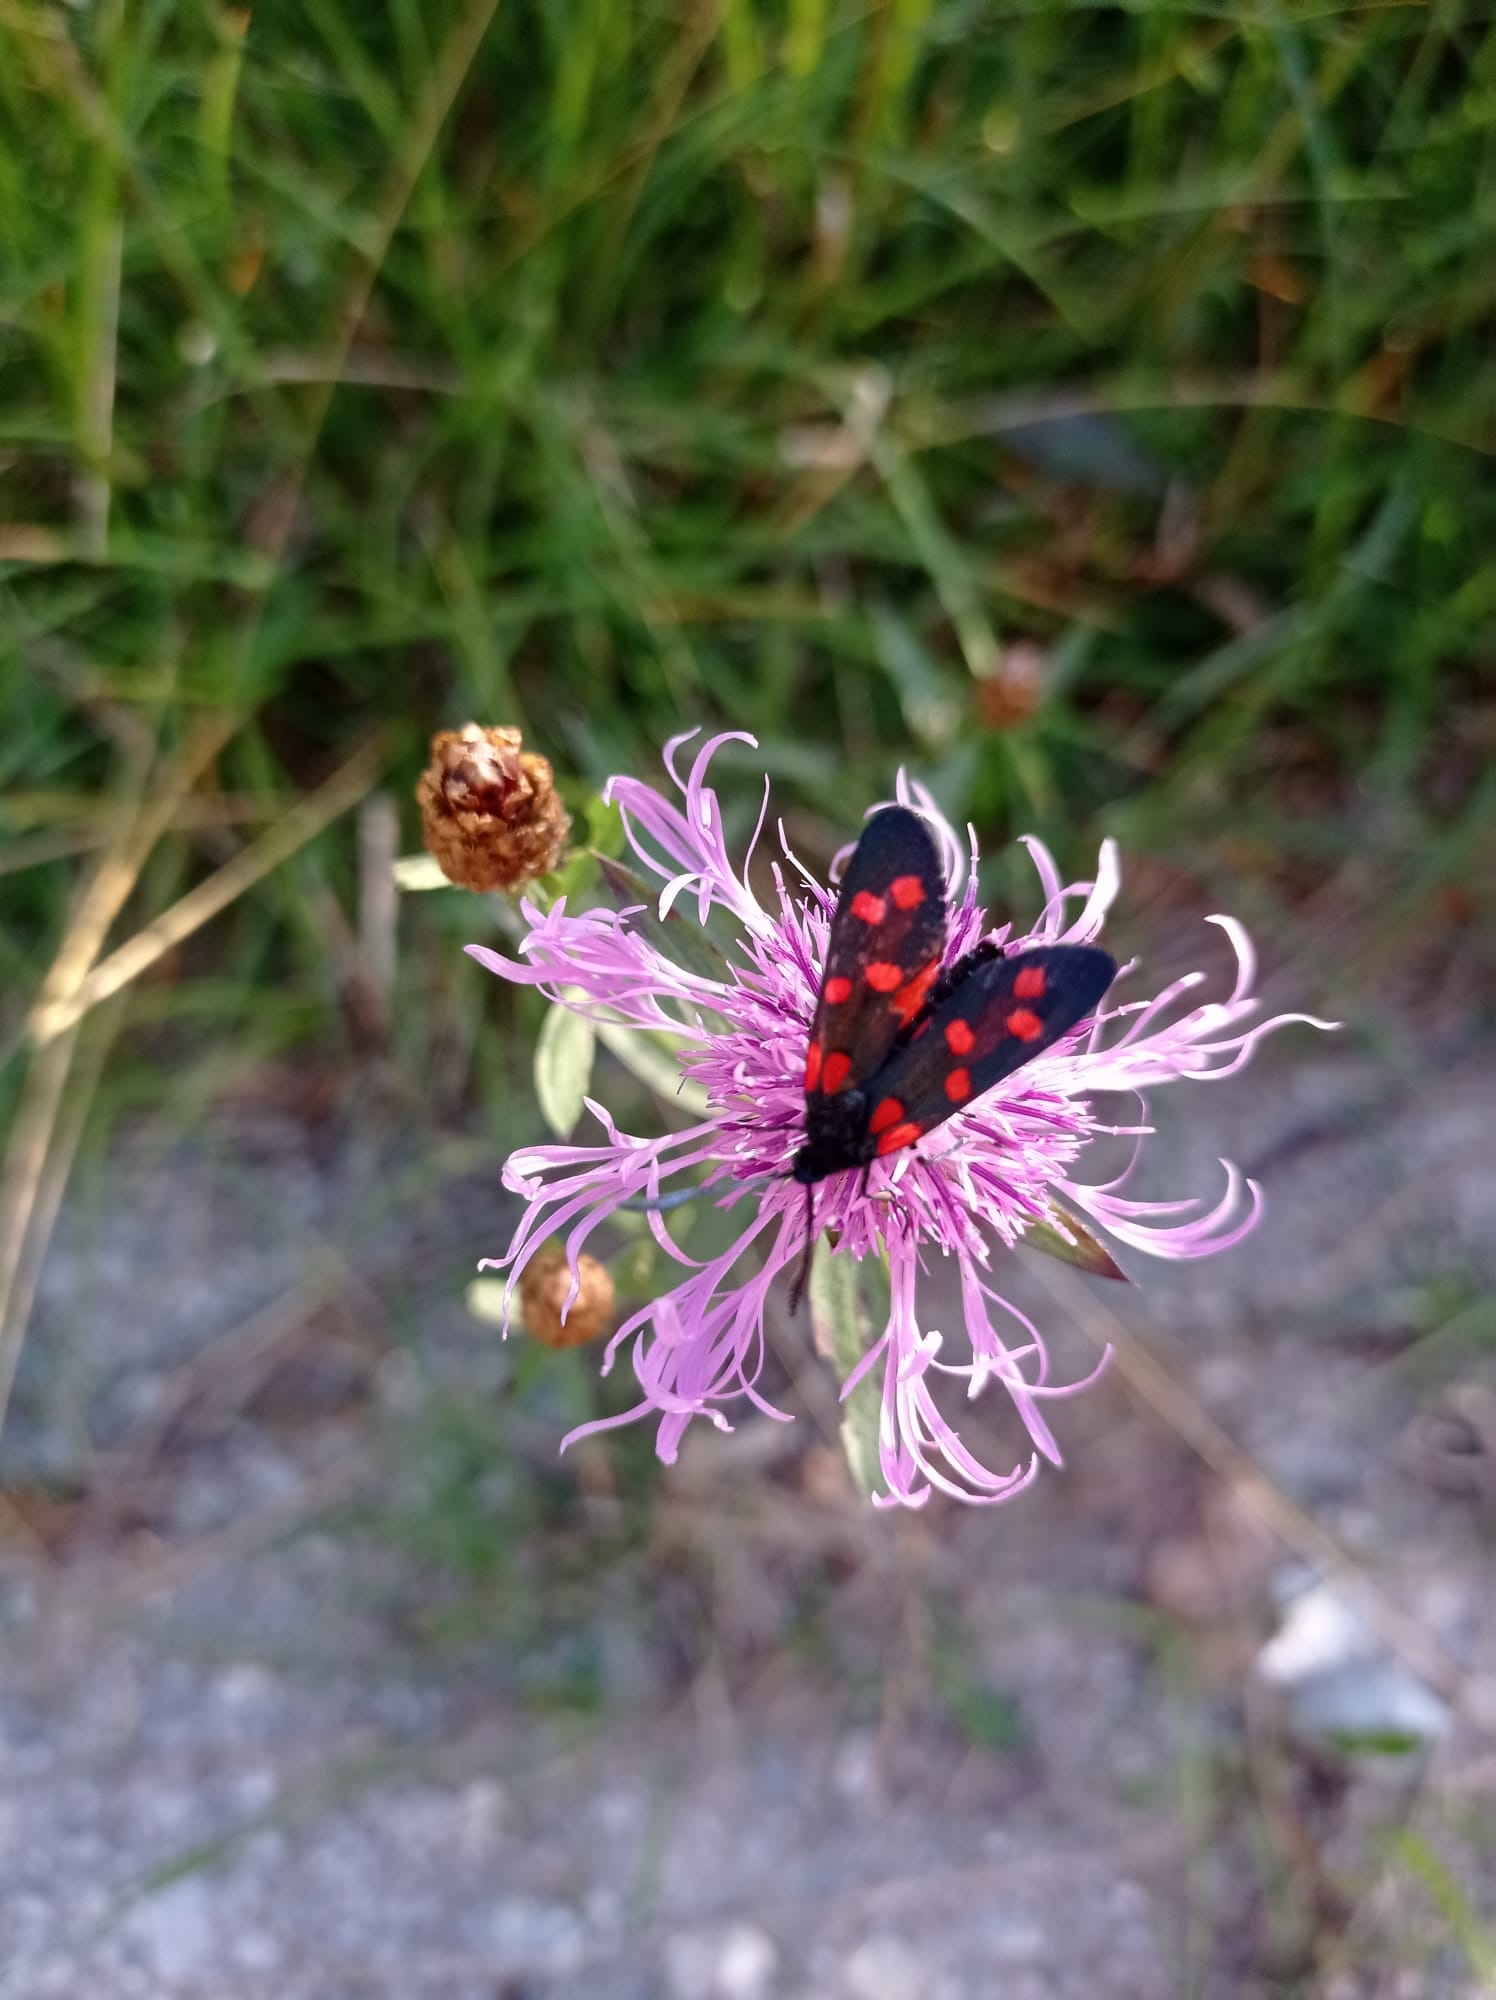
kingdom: Animalia
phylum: Arthropoda
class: Insecta
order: Lepidoptera
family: Zygaenidae
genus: Zygaena
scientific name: Zygaena transalpina
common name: Southern six spot burnet
